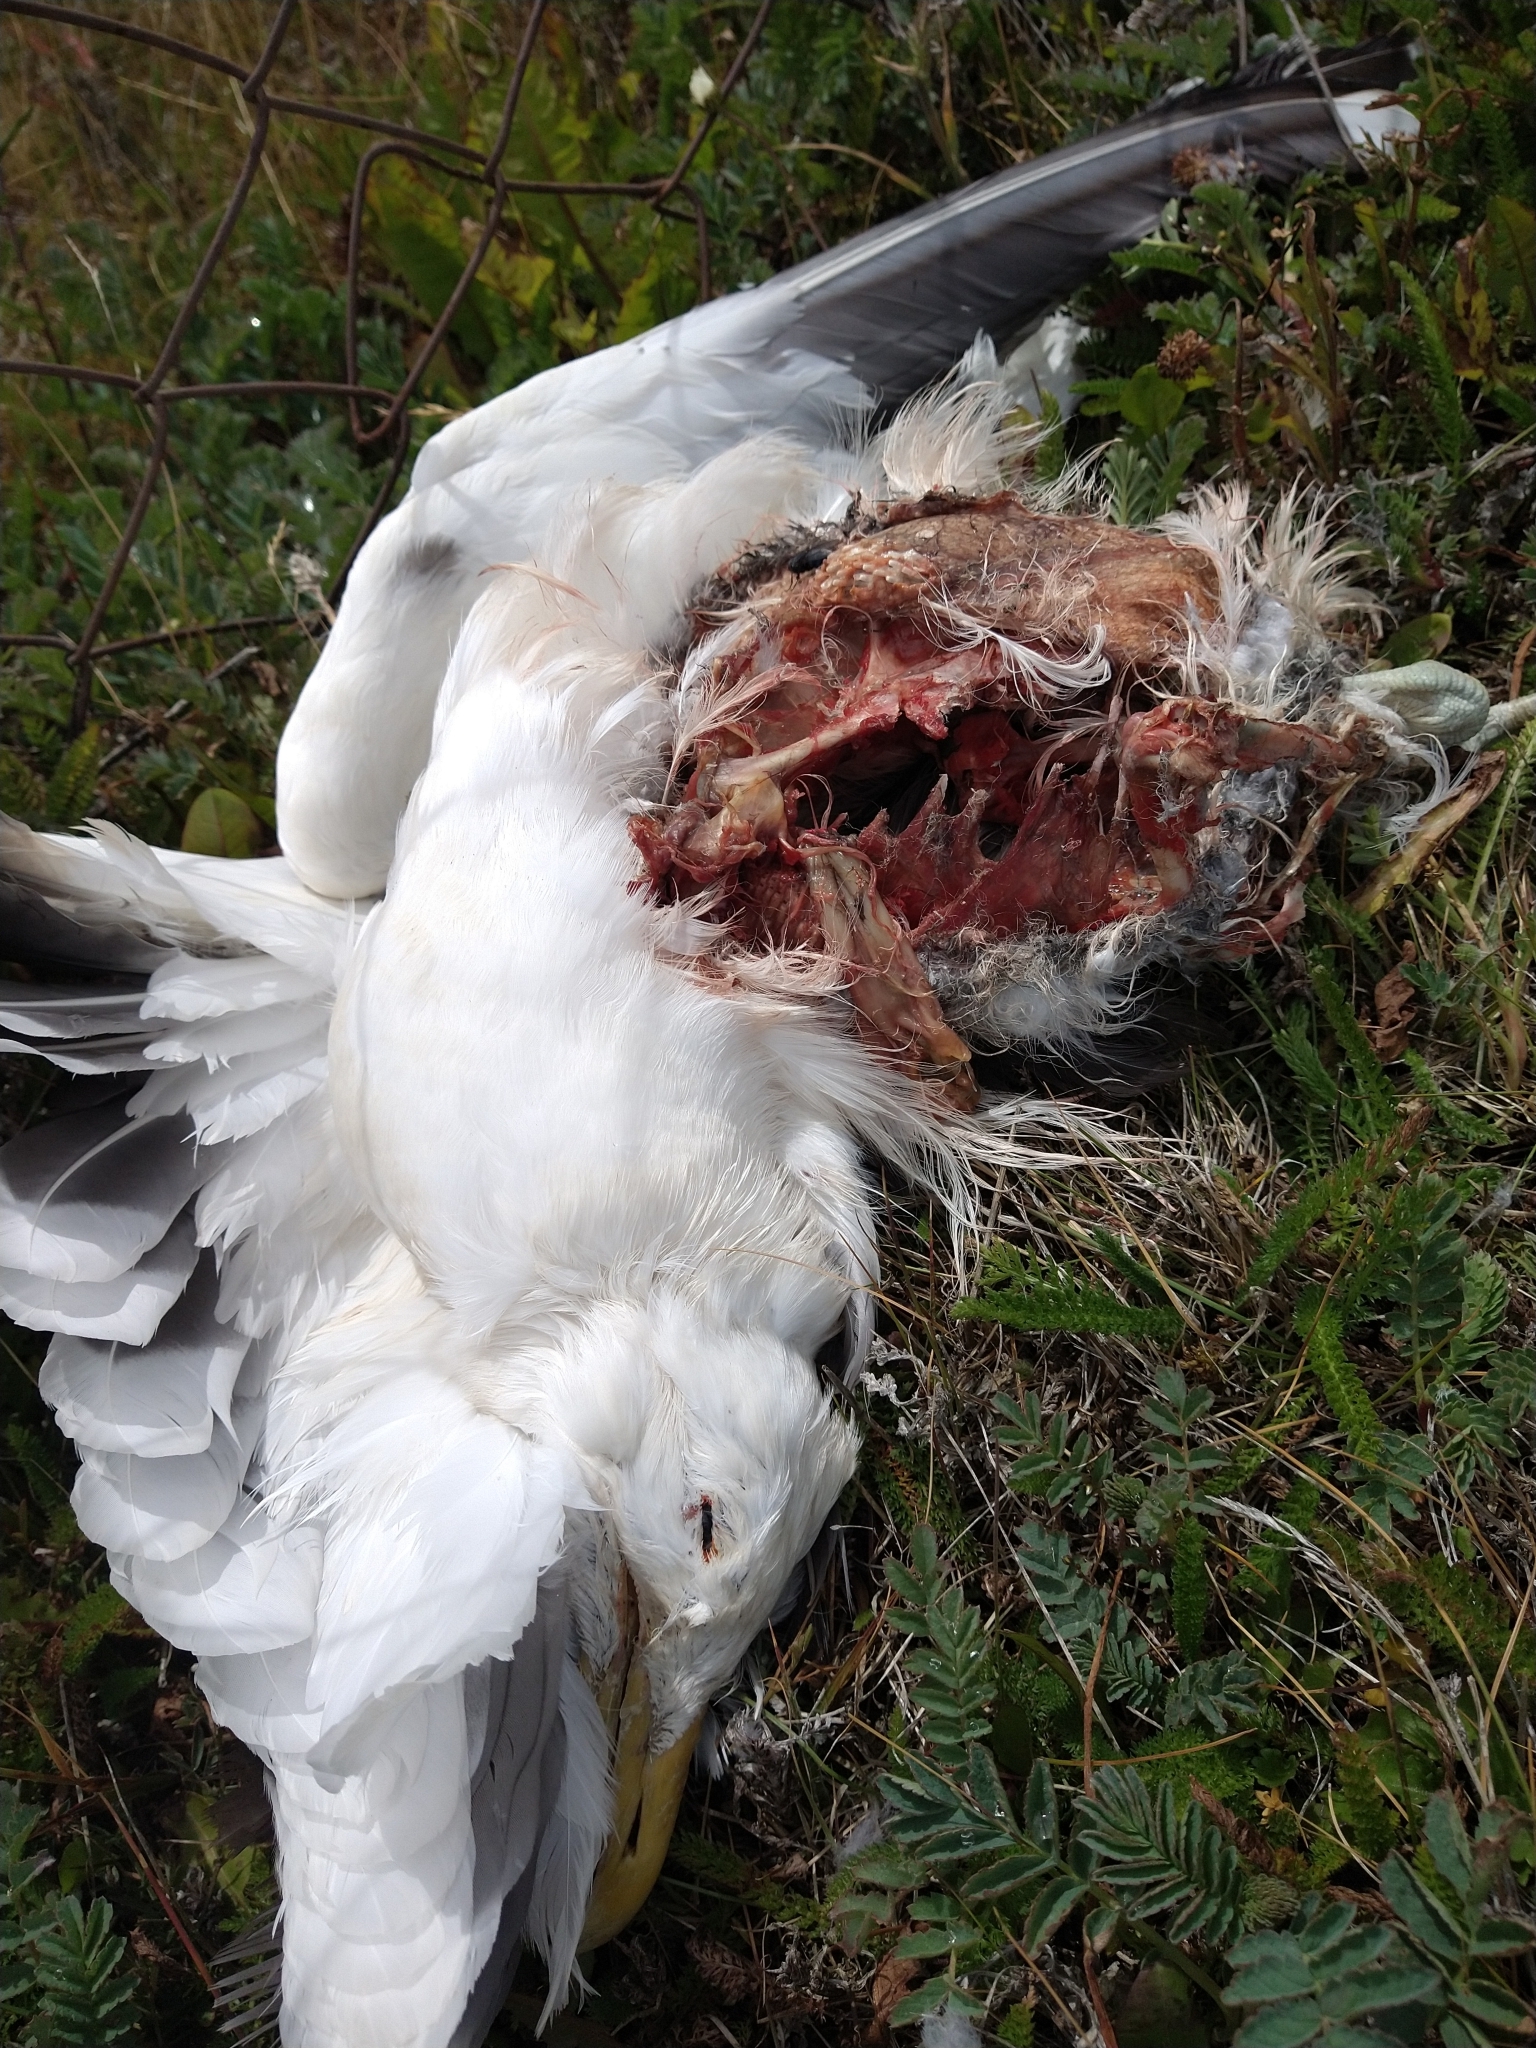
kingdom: Animalia
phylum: Chordata
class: Aves
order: Charadriiformes
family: Laridae
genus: Larus
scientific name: Larus dominicanus
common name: Kelp gull
